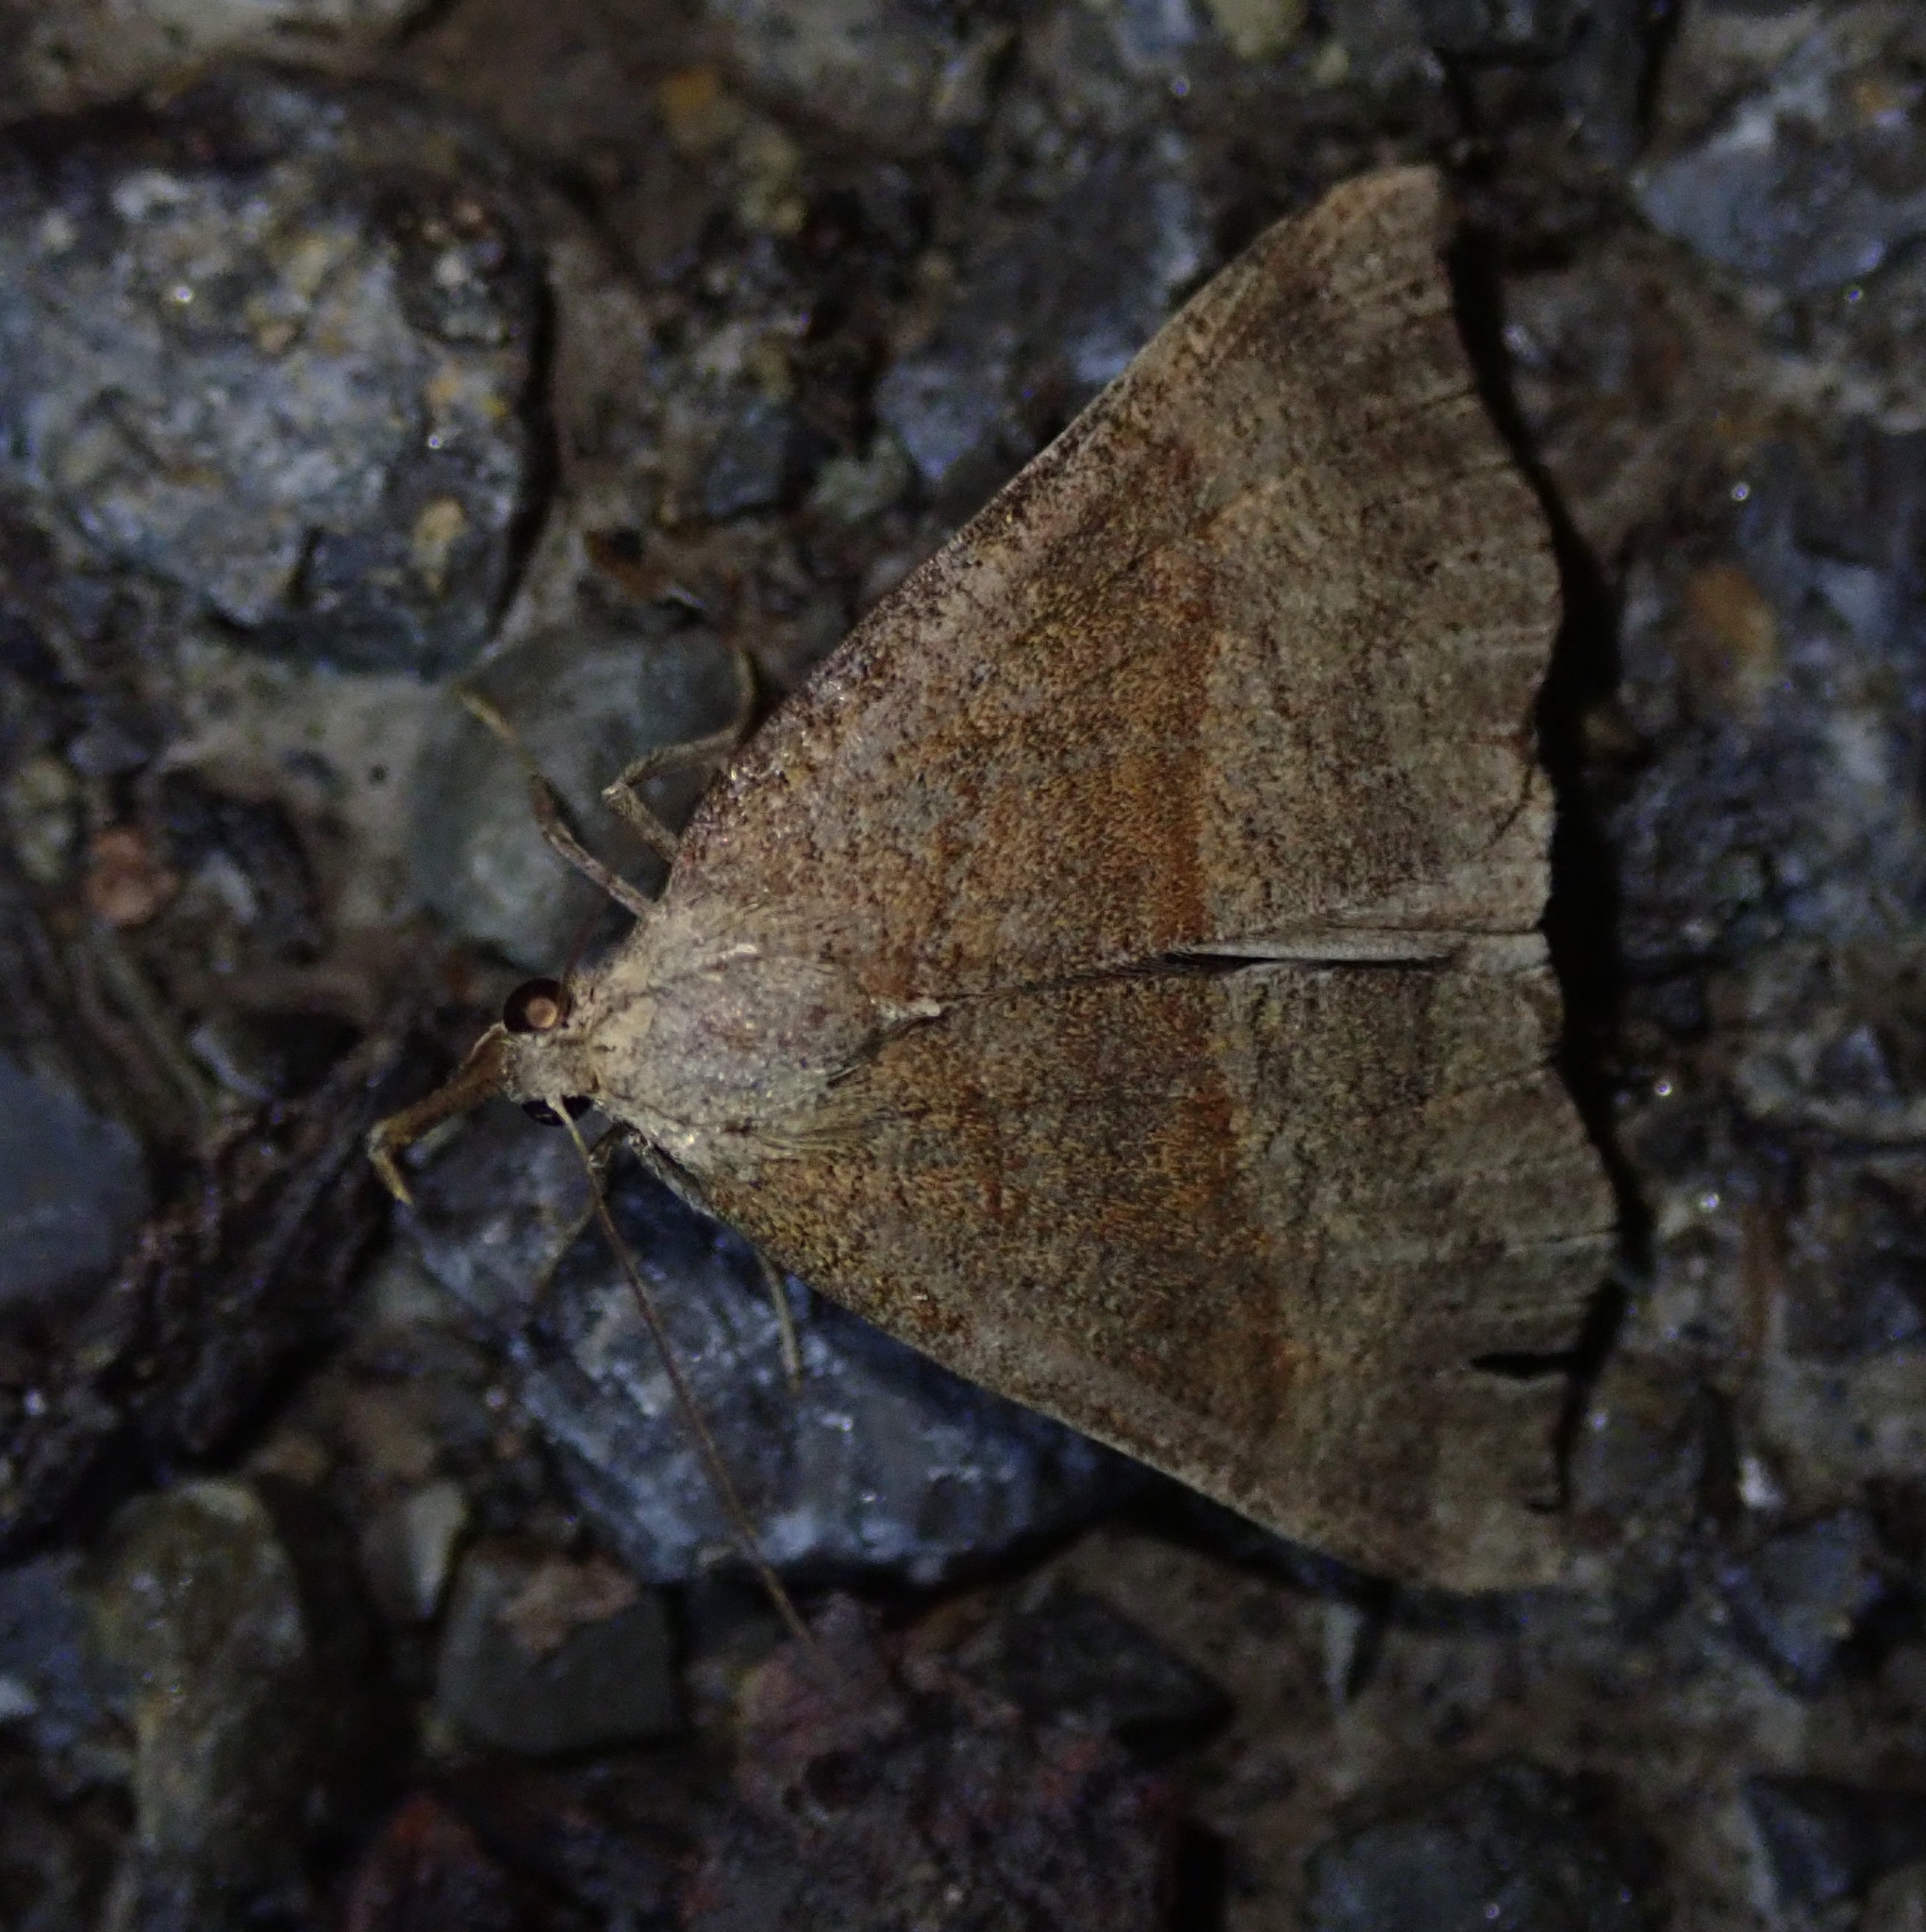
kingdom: Animalia
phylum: Arthropoda
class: Insecta
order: Lepidoptera
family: Erebidae
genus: Hypena
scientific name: Hypena proboscidalis
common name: Snout
